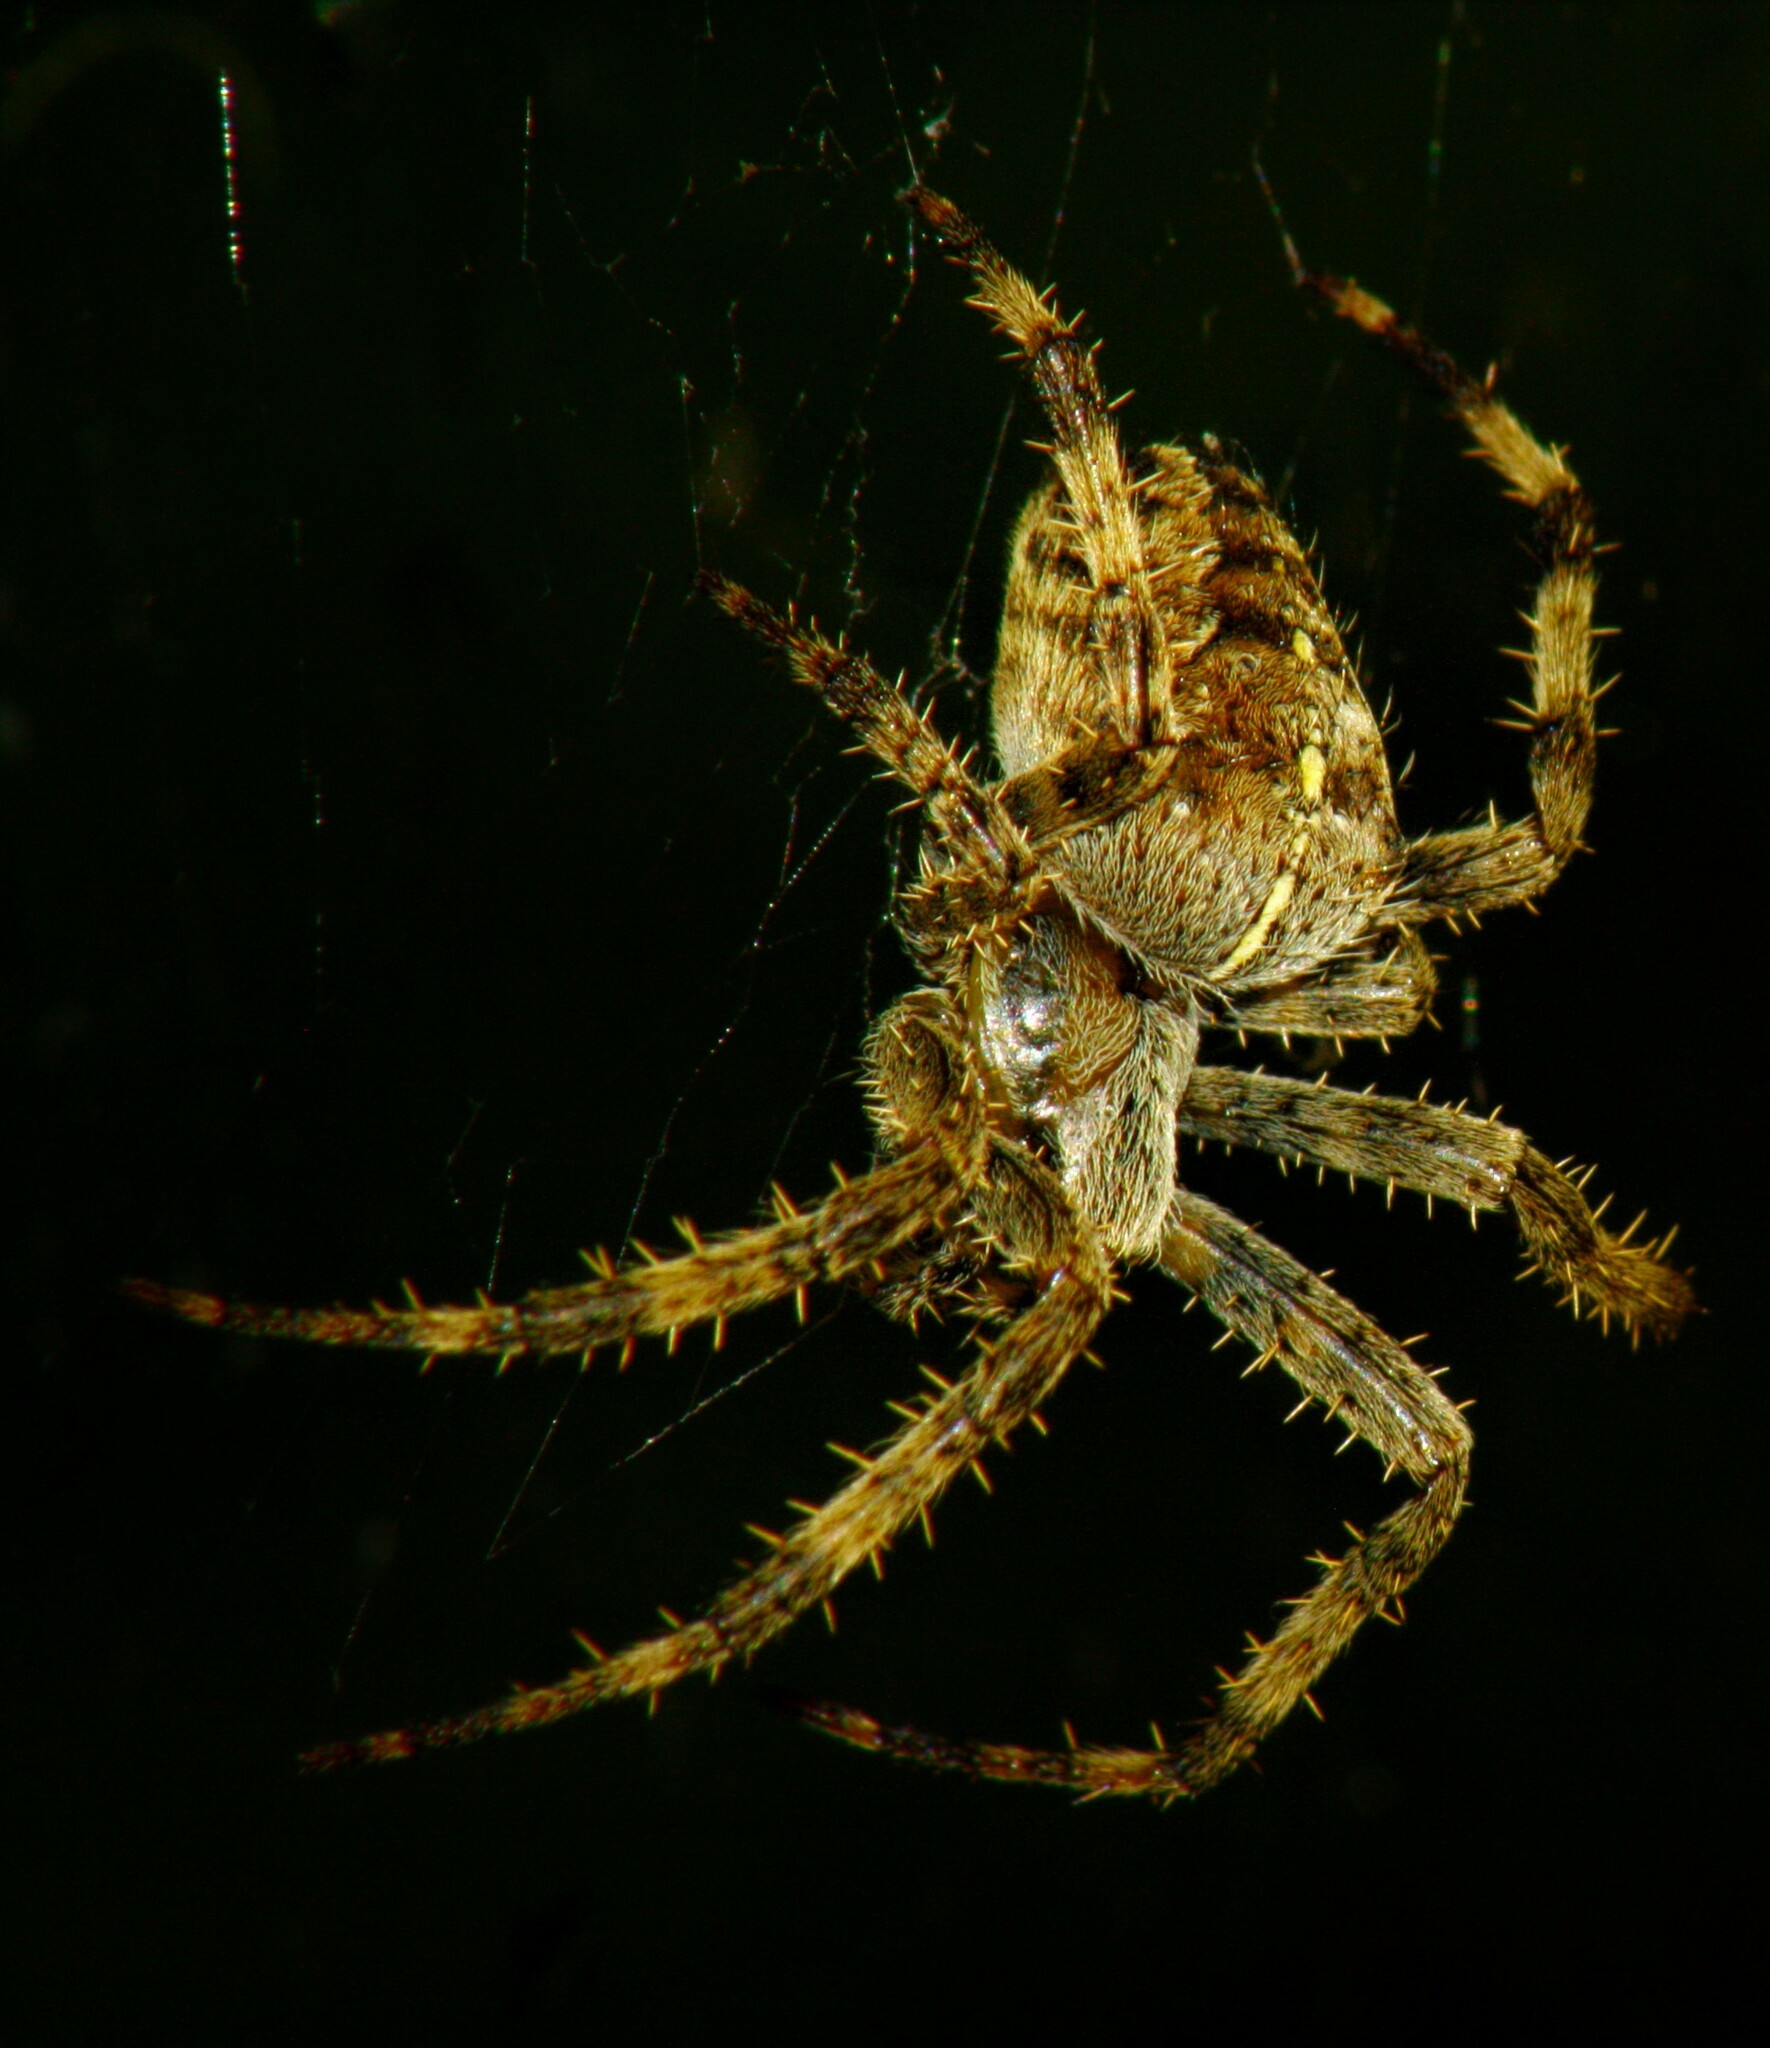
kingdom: Animalia
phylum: Arthropoda
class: Arachnida
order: Araneae
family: Araneidae
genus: Araneus
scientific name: Araneus diadematus
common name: Cross orbweaver
